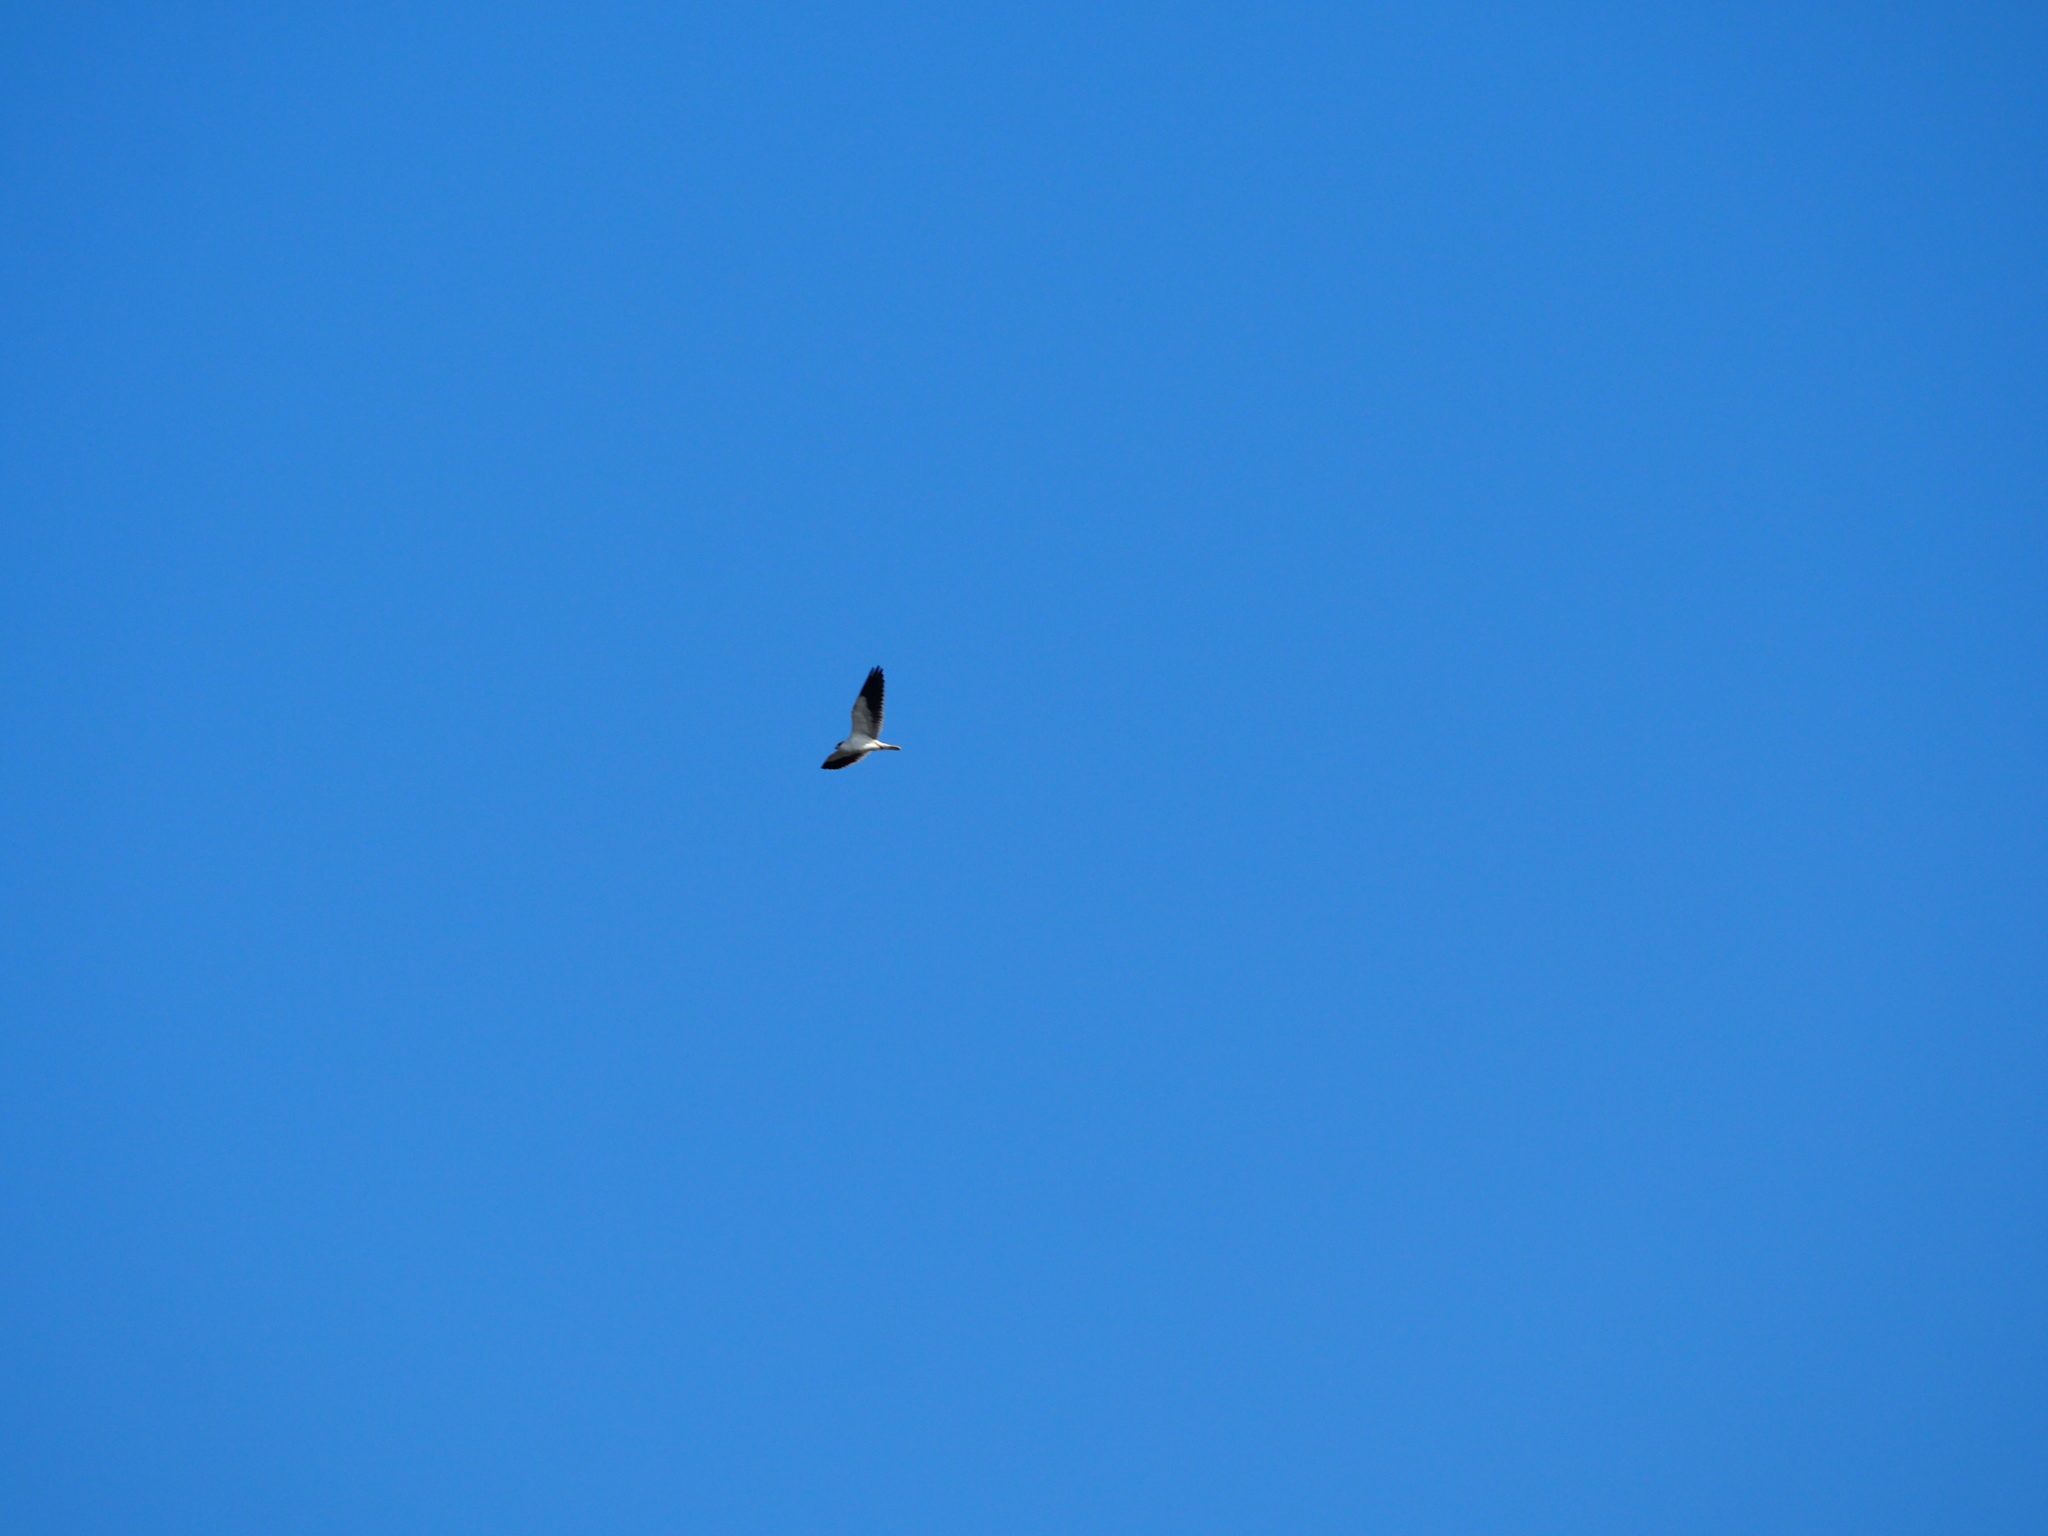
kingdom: Animalia
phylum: Chordata
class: Aves
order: Accipitriformes
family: Accipitridae
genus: Elanus
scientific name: Elanus caeruleus
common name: Black-winged kite
